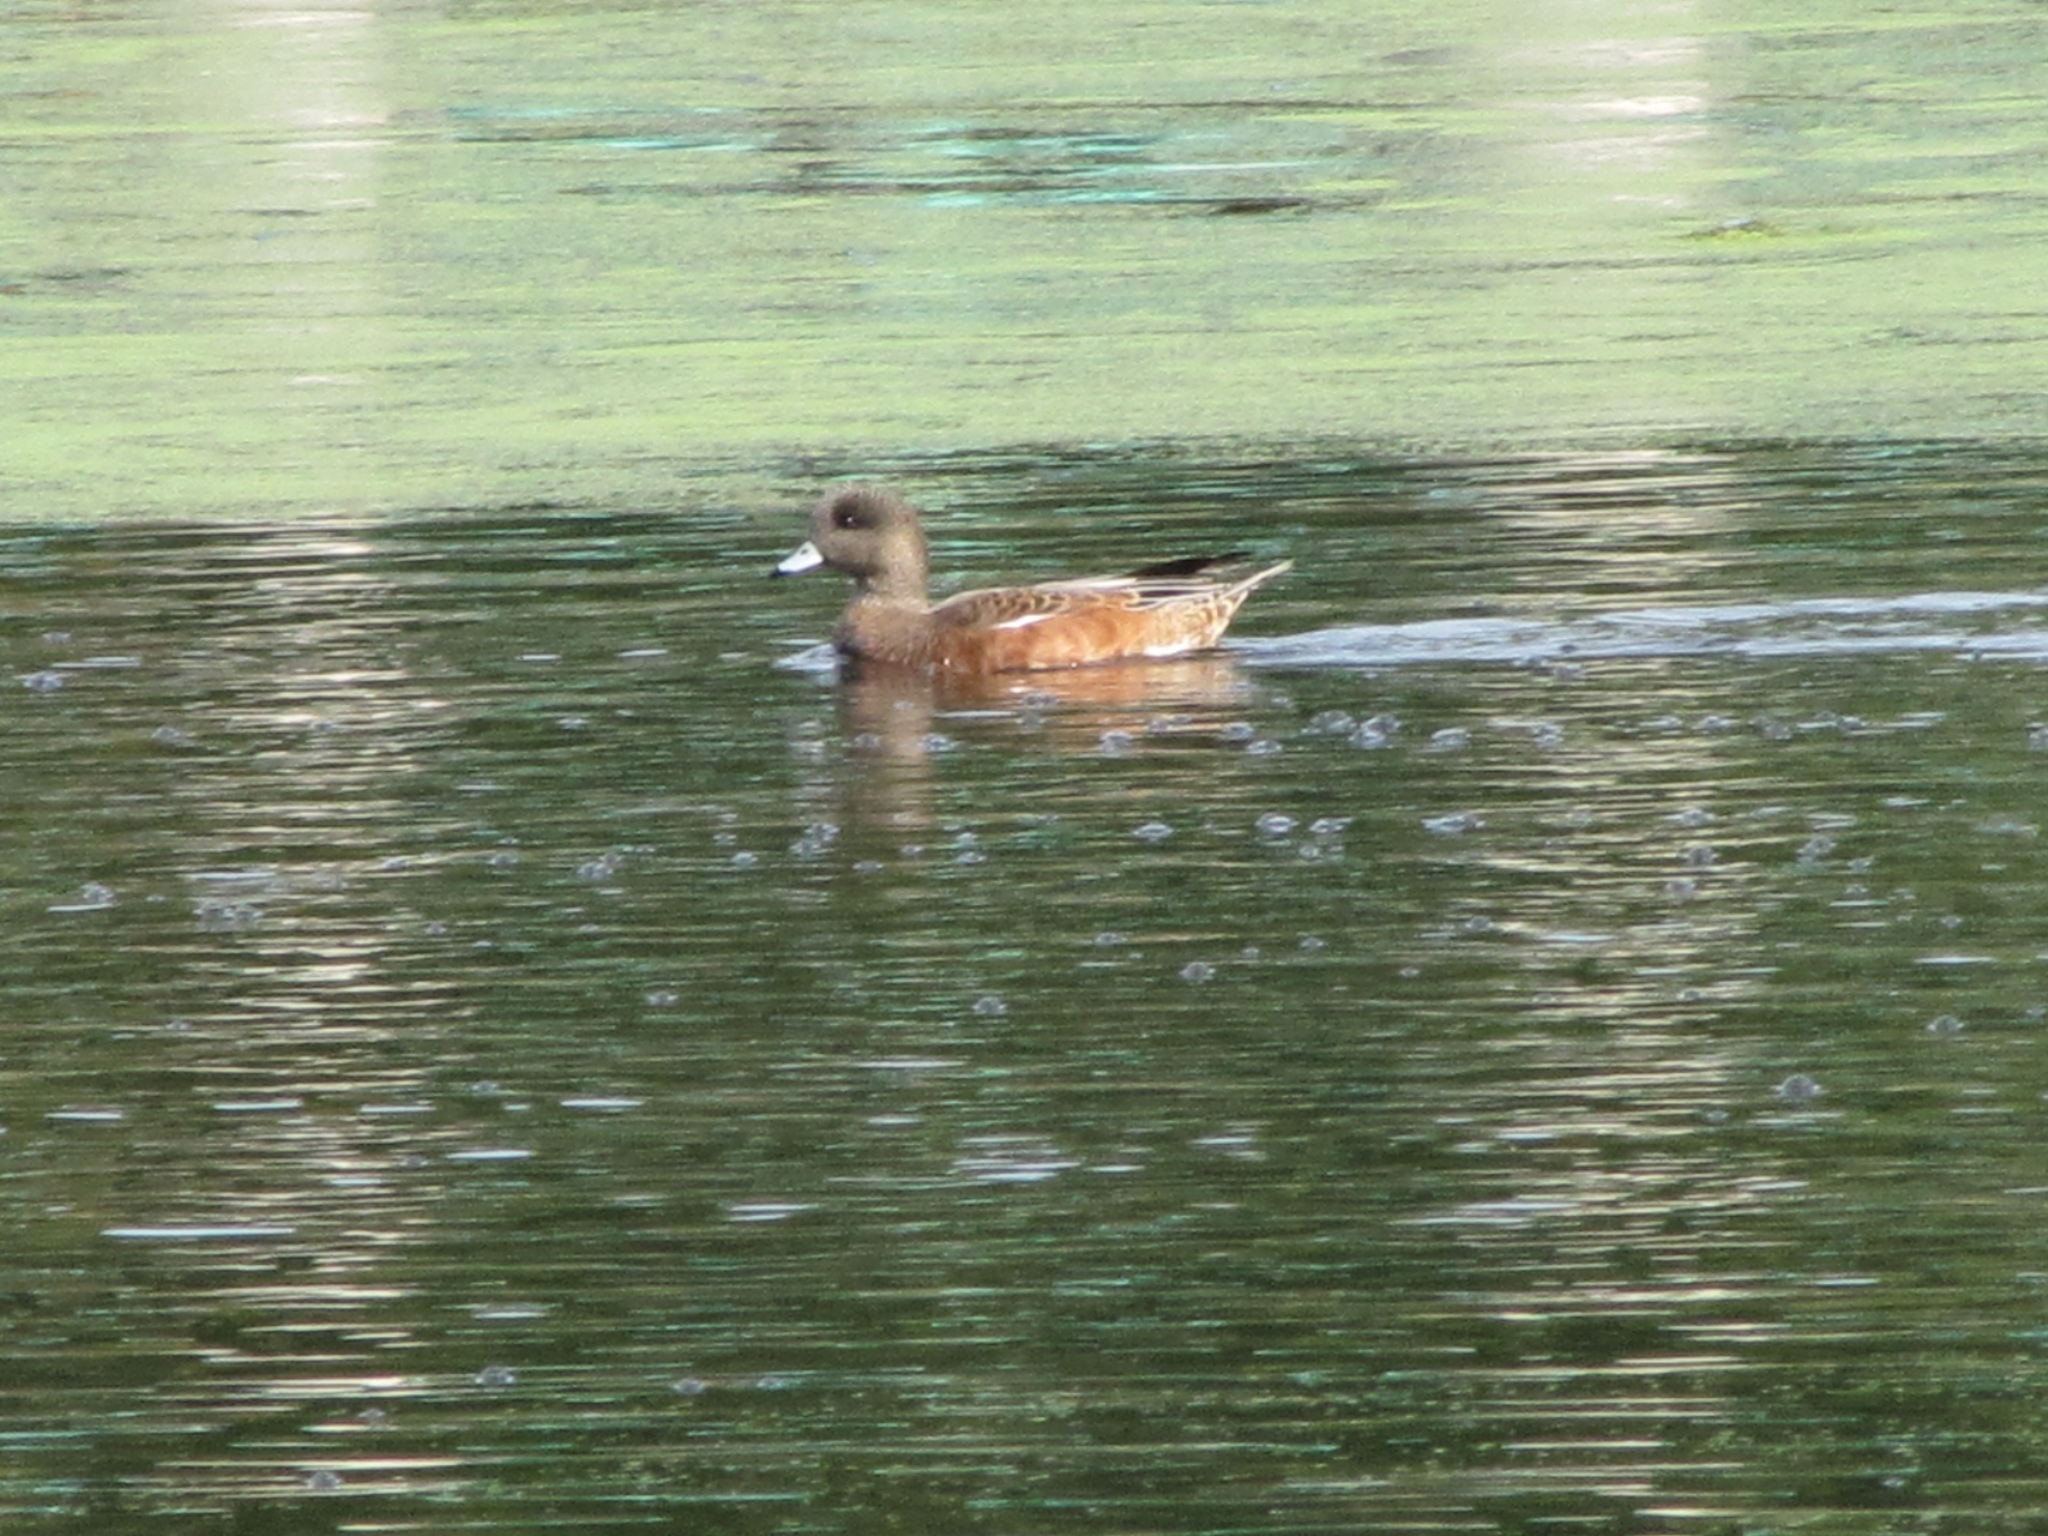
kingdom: Animalia
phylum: Chordata
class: Aves
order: Anseriformes
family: Anatidae
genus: Mareca
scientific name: Mareca americana
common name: American wigeon
